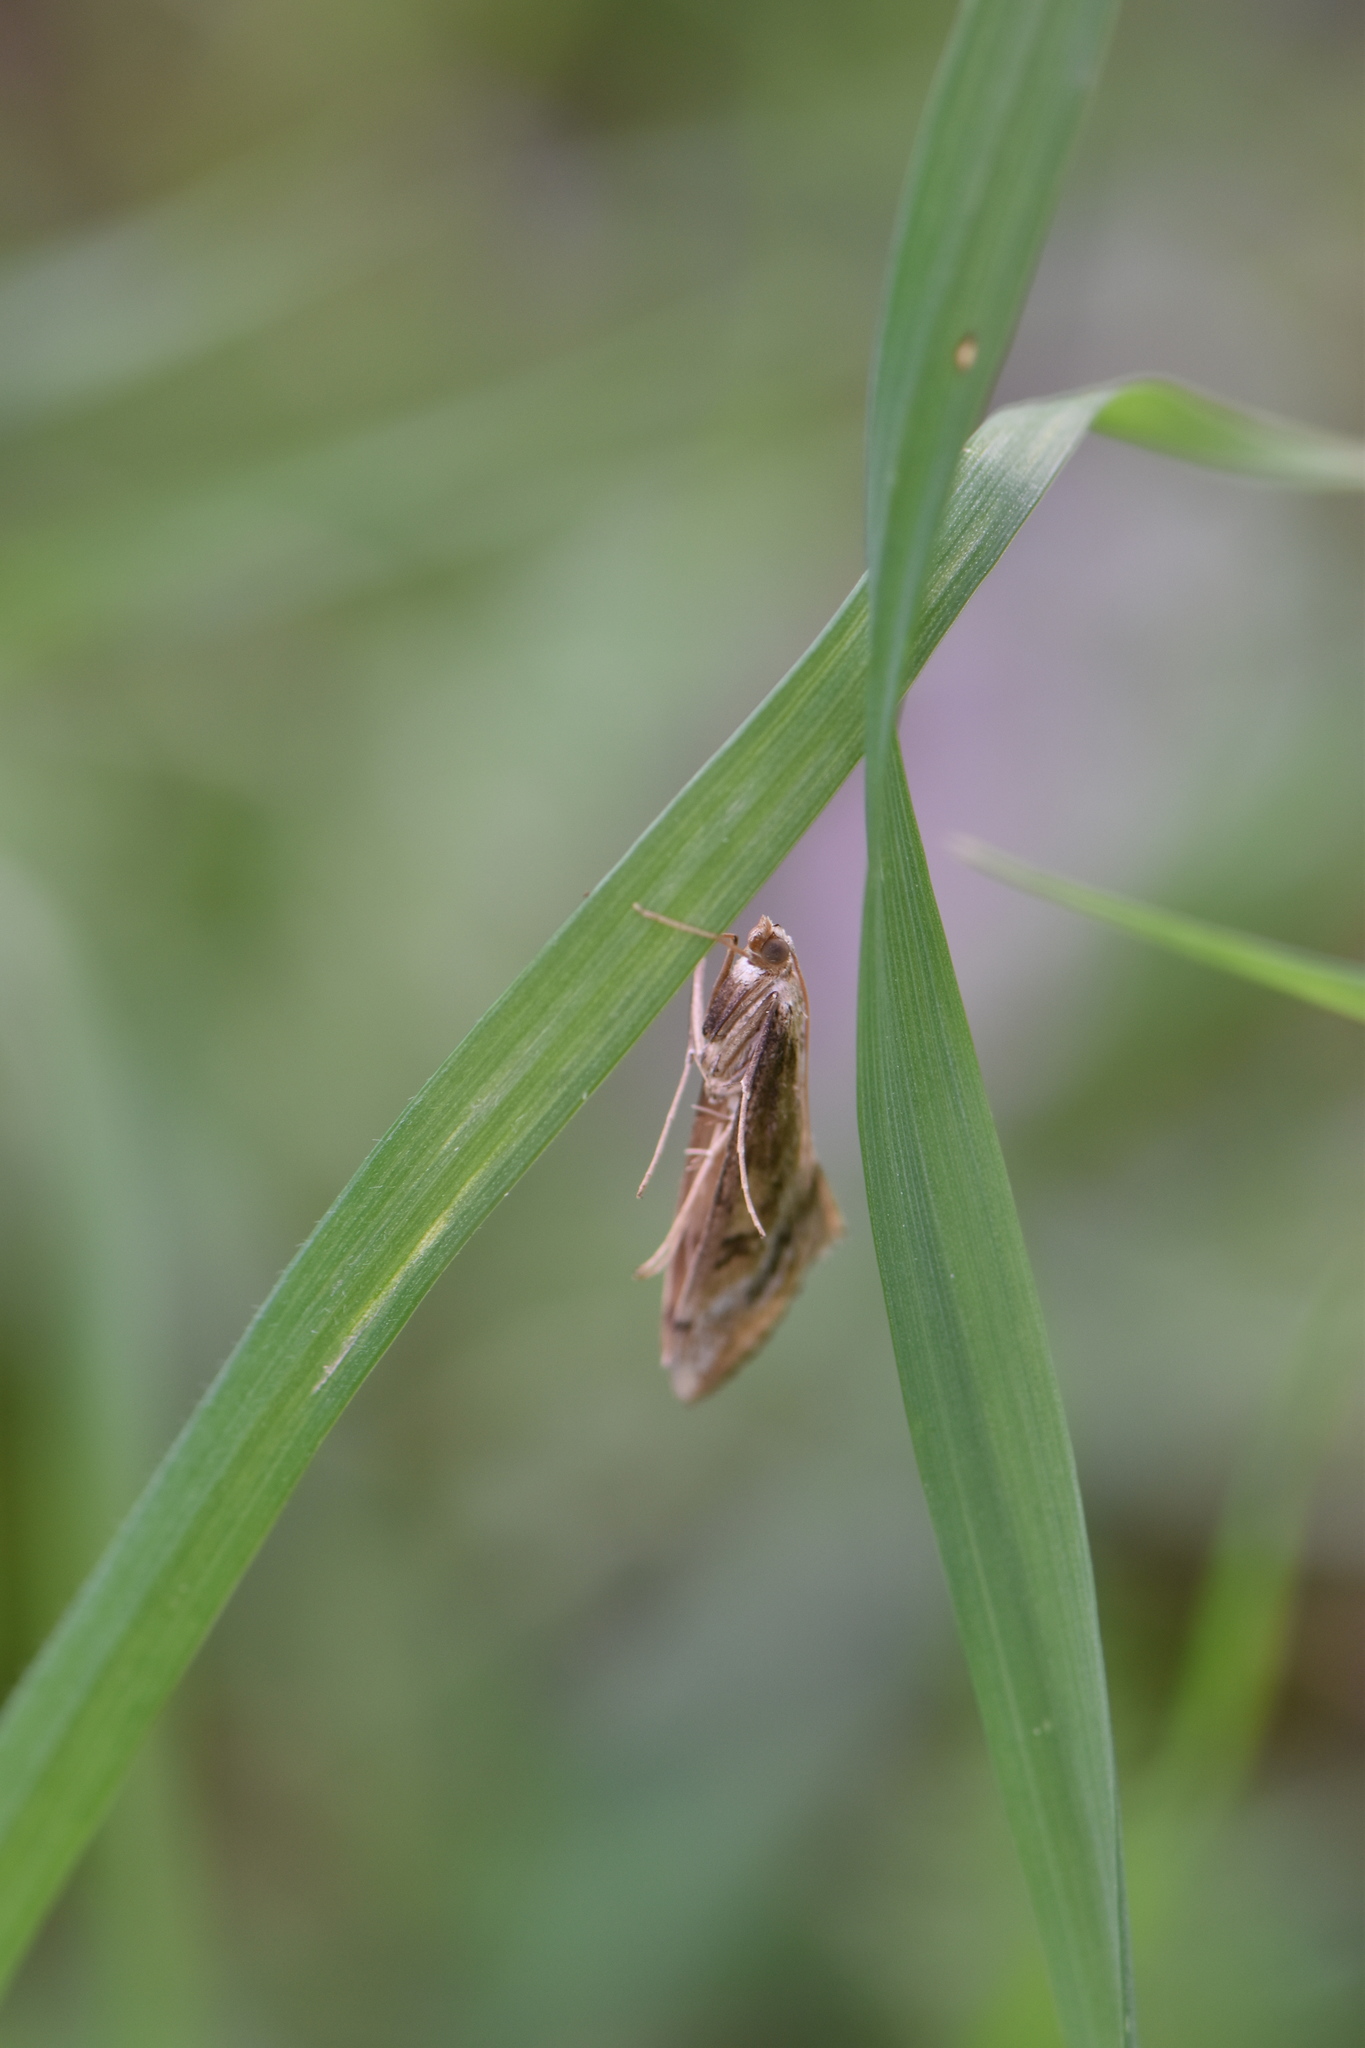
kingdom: Animalia
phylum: Arthropoda
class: Insecta
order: Lepidoptera
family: Crambidae
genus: Evergestis
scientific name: Evergestis isatidalis
